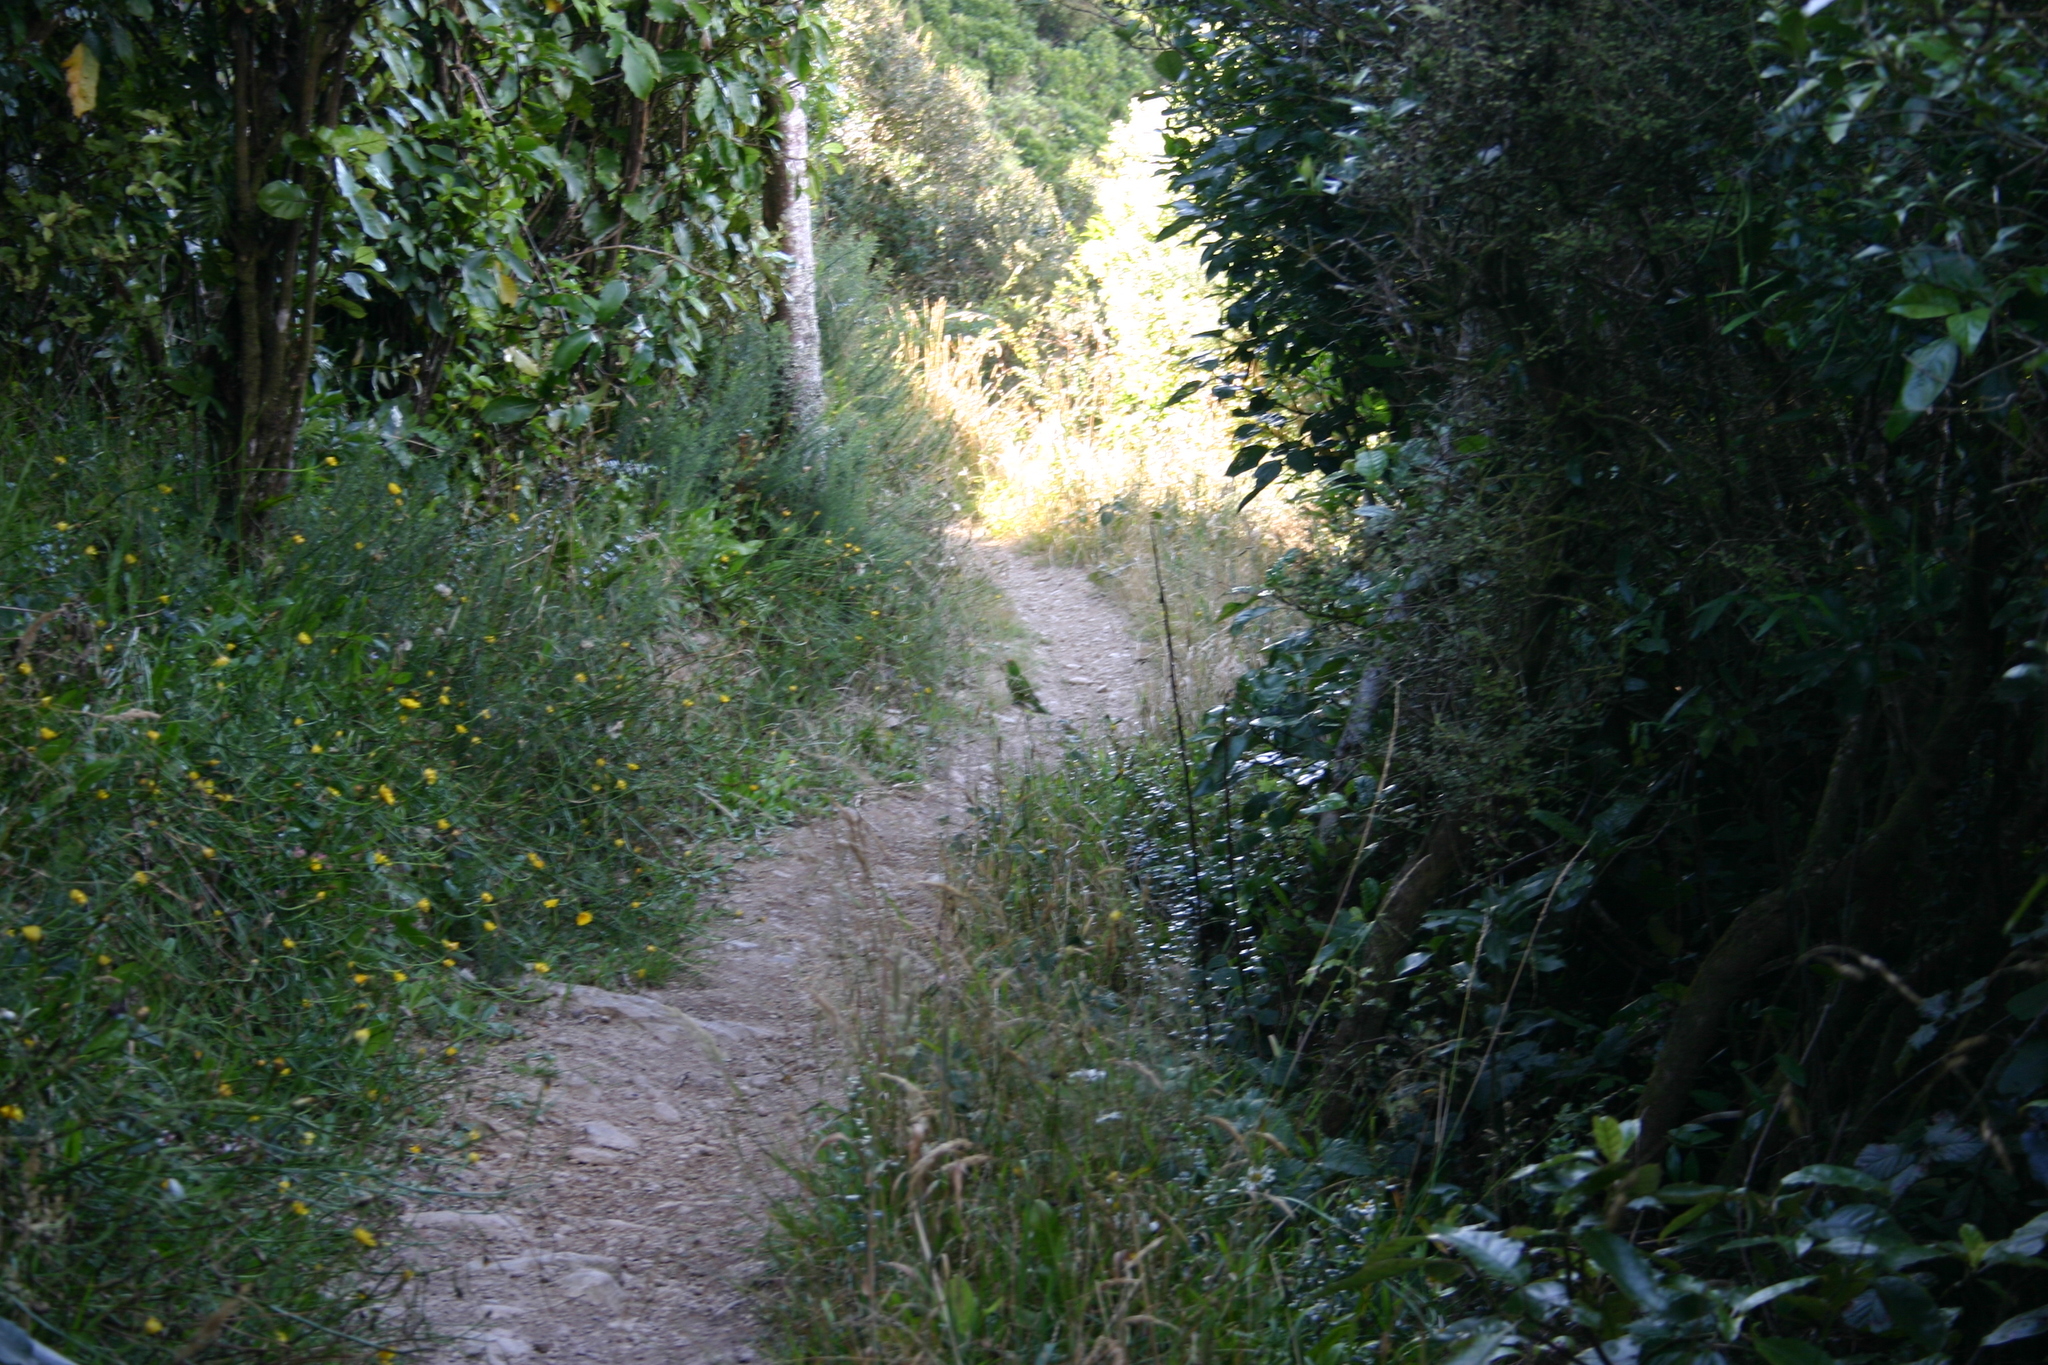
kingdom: Animalia
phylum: Chordata
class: Aves
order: Psittaciformes
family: Psittacidae
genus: Cyanoramphus
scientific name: Cyanoramphus novaezelandiae
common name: Red-fronted parakeet
